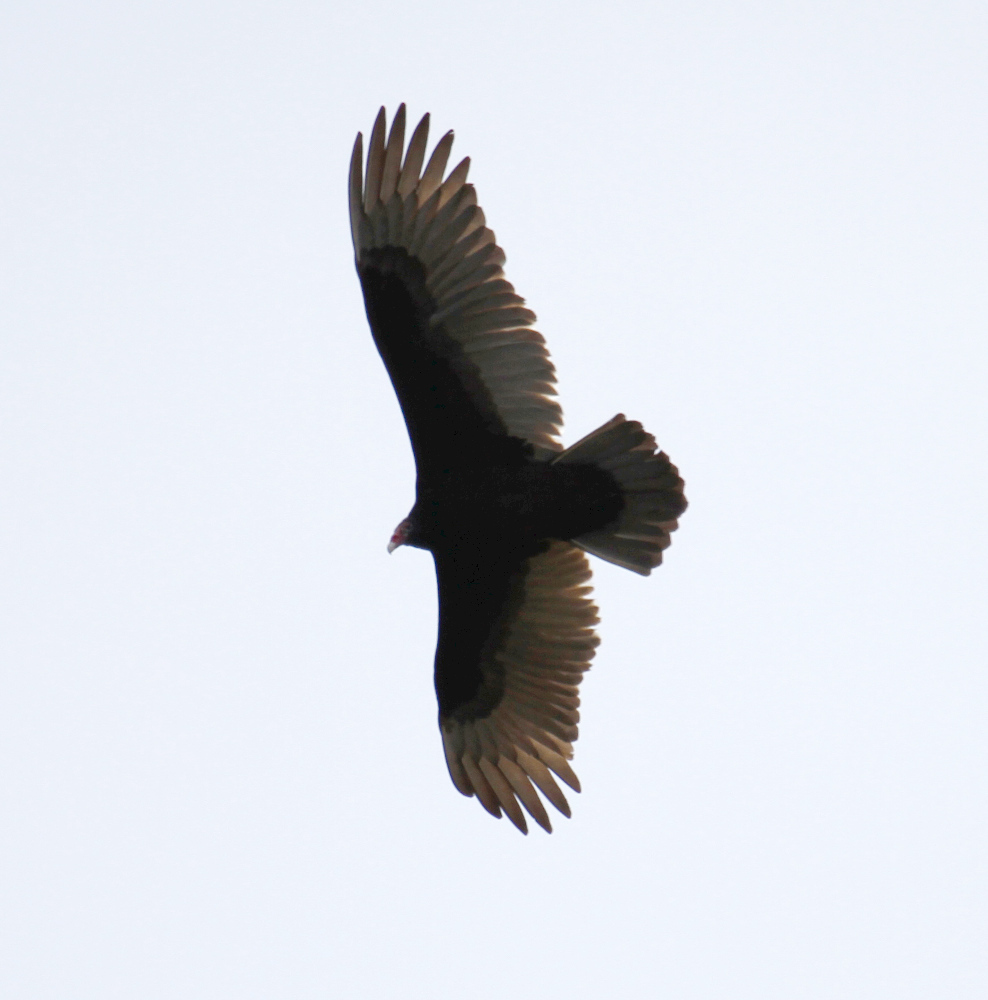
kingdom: Animalia
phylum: Chordata
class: Aves
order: Accipitriformes
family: Cathartidae
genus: Cathartes
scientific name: Cathartes aura
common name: Turkey vulture
